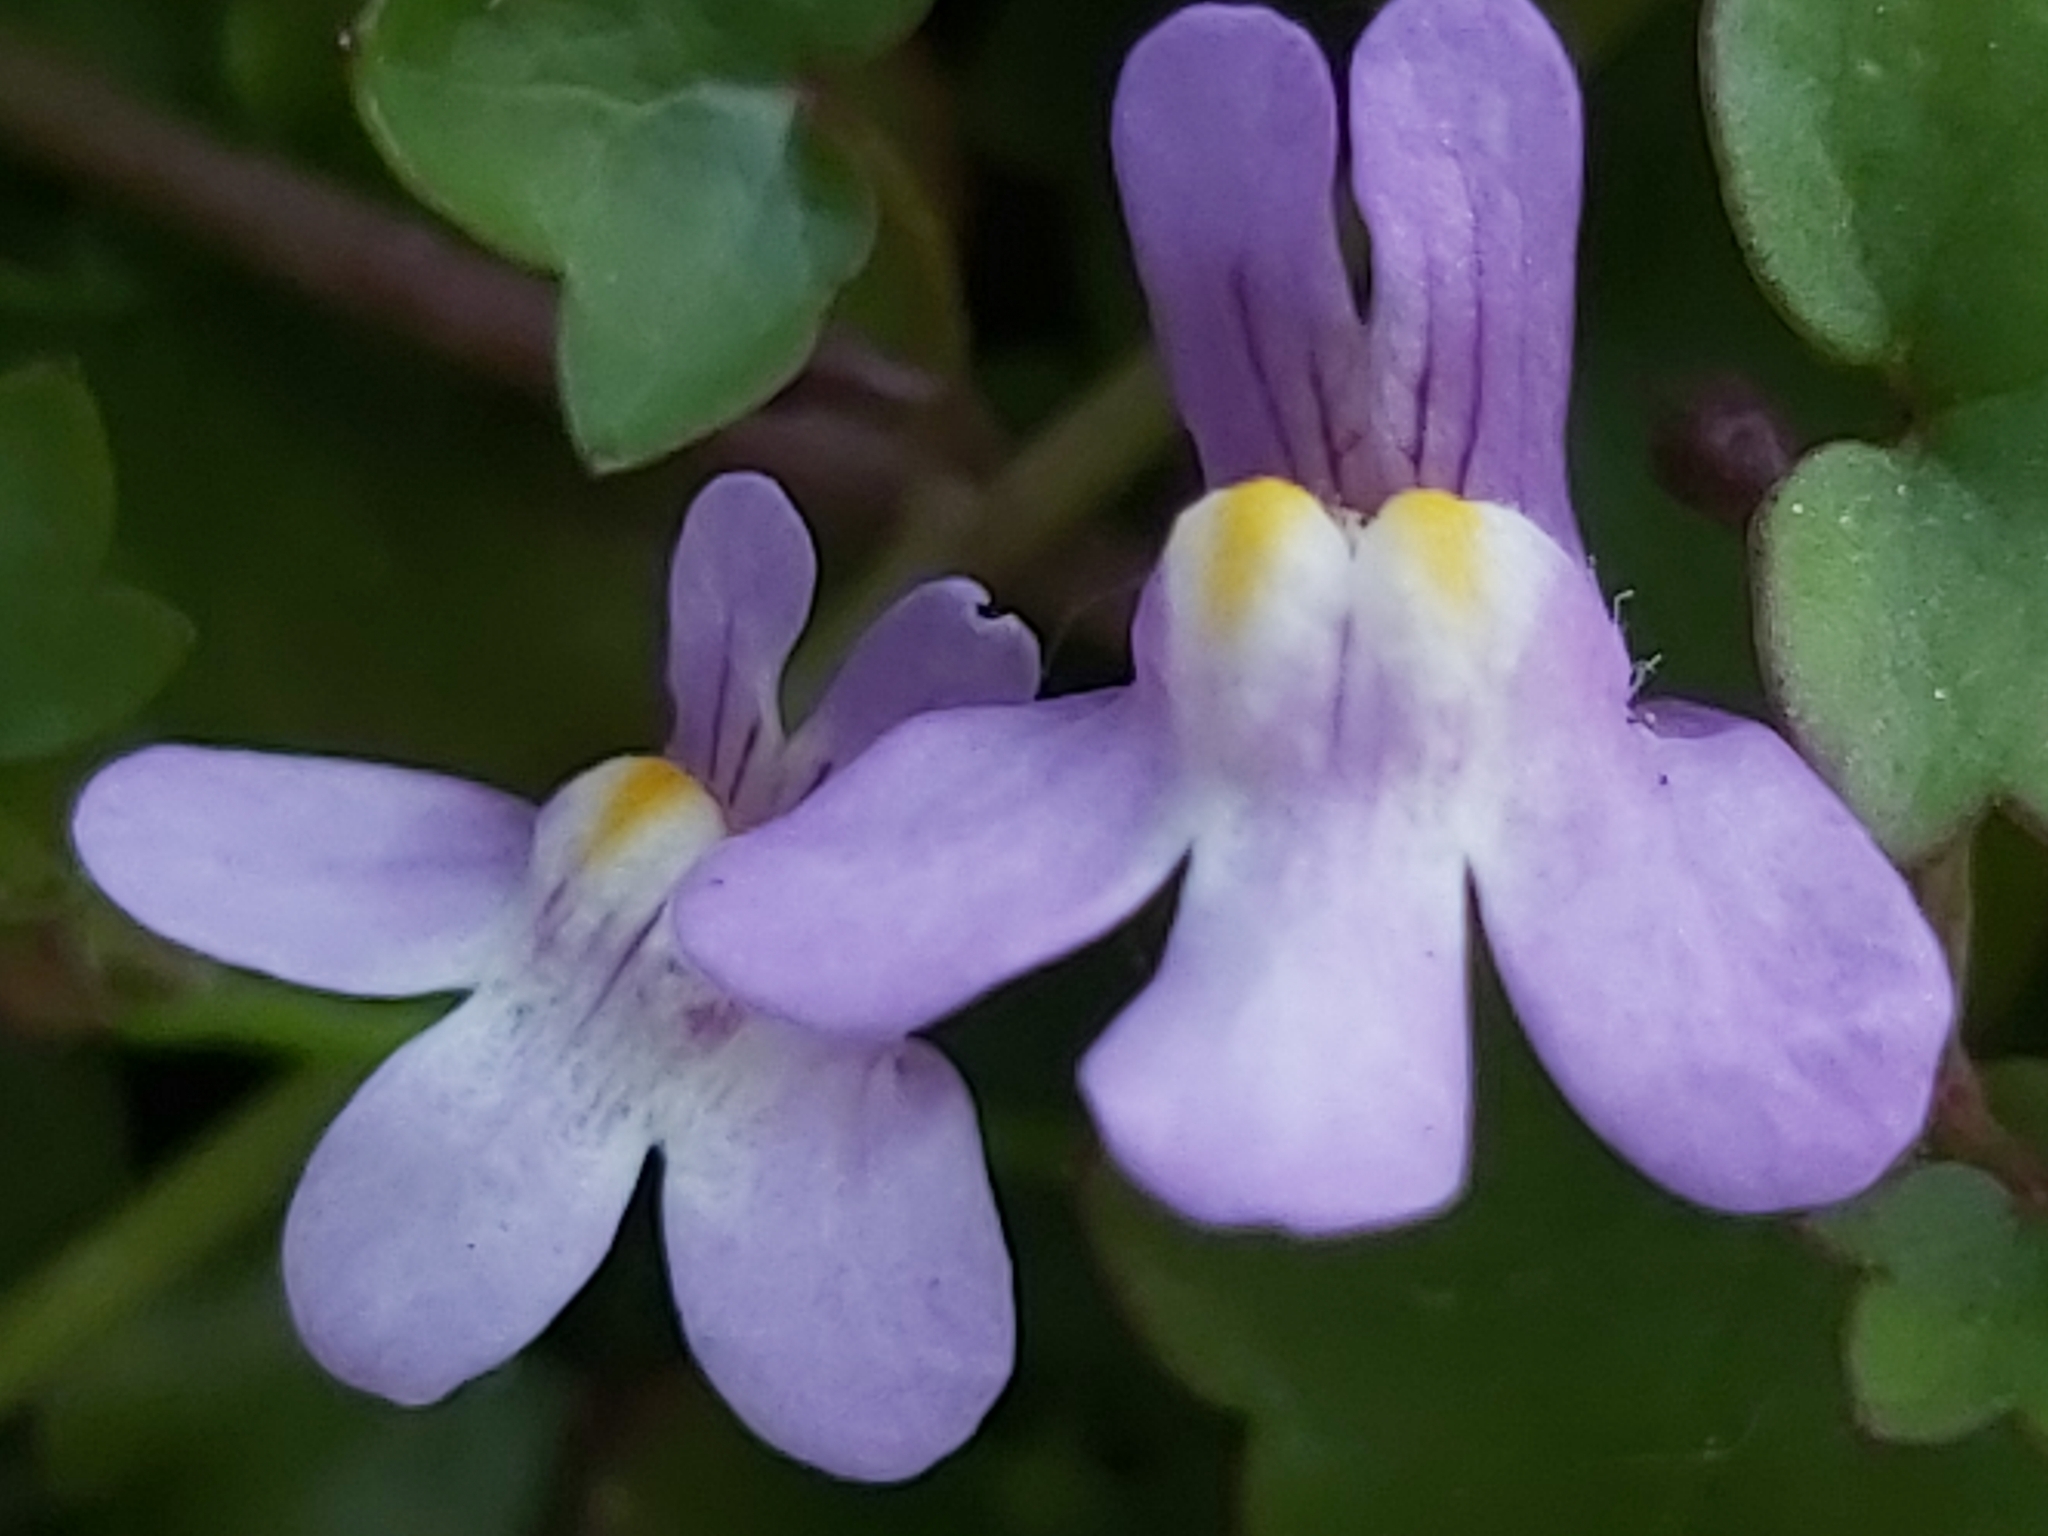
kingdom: Plantae
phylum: Tracheophyta
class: Magnoliopsida
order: Lamiales
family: Plantaginaceae
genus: Cymbalaria
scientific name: Cymbalaria muralis
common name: Ivy-leaved toadflax
